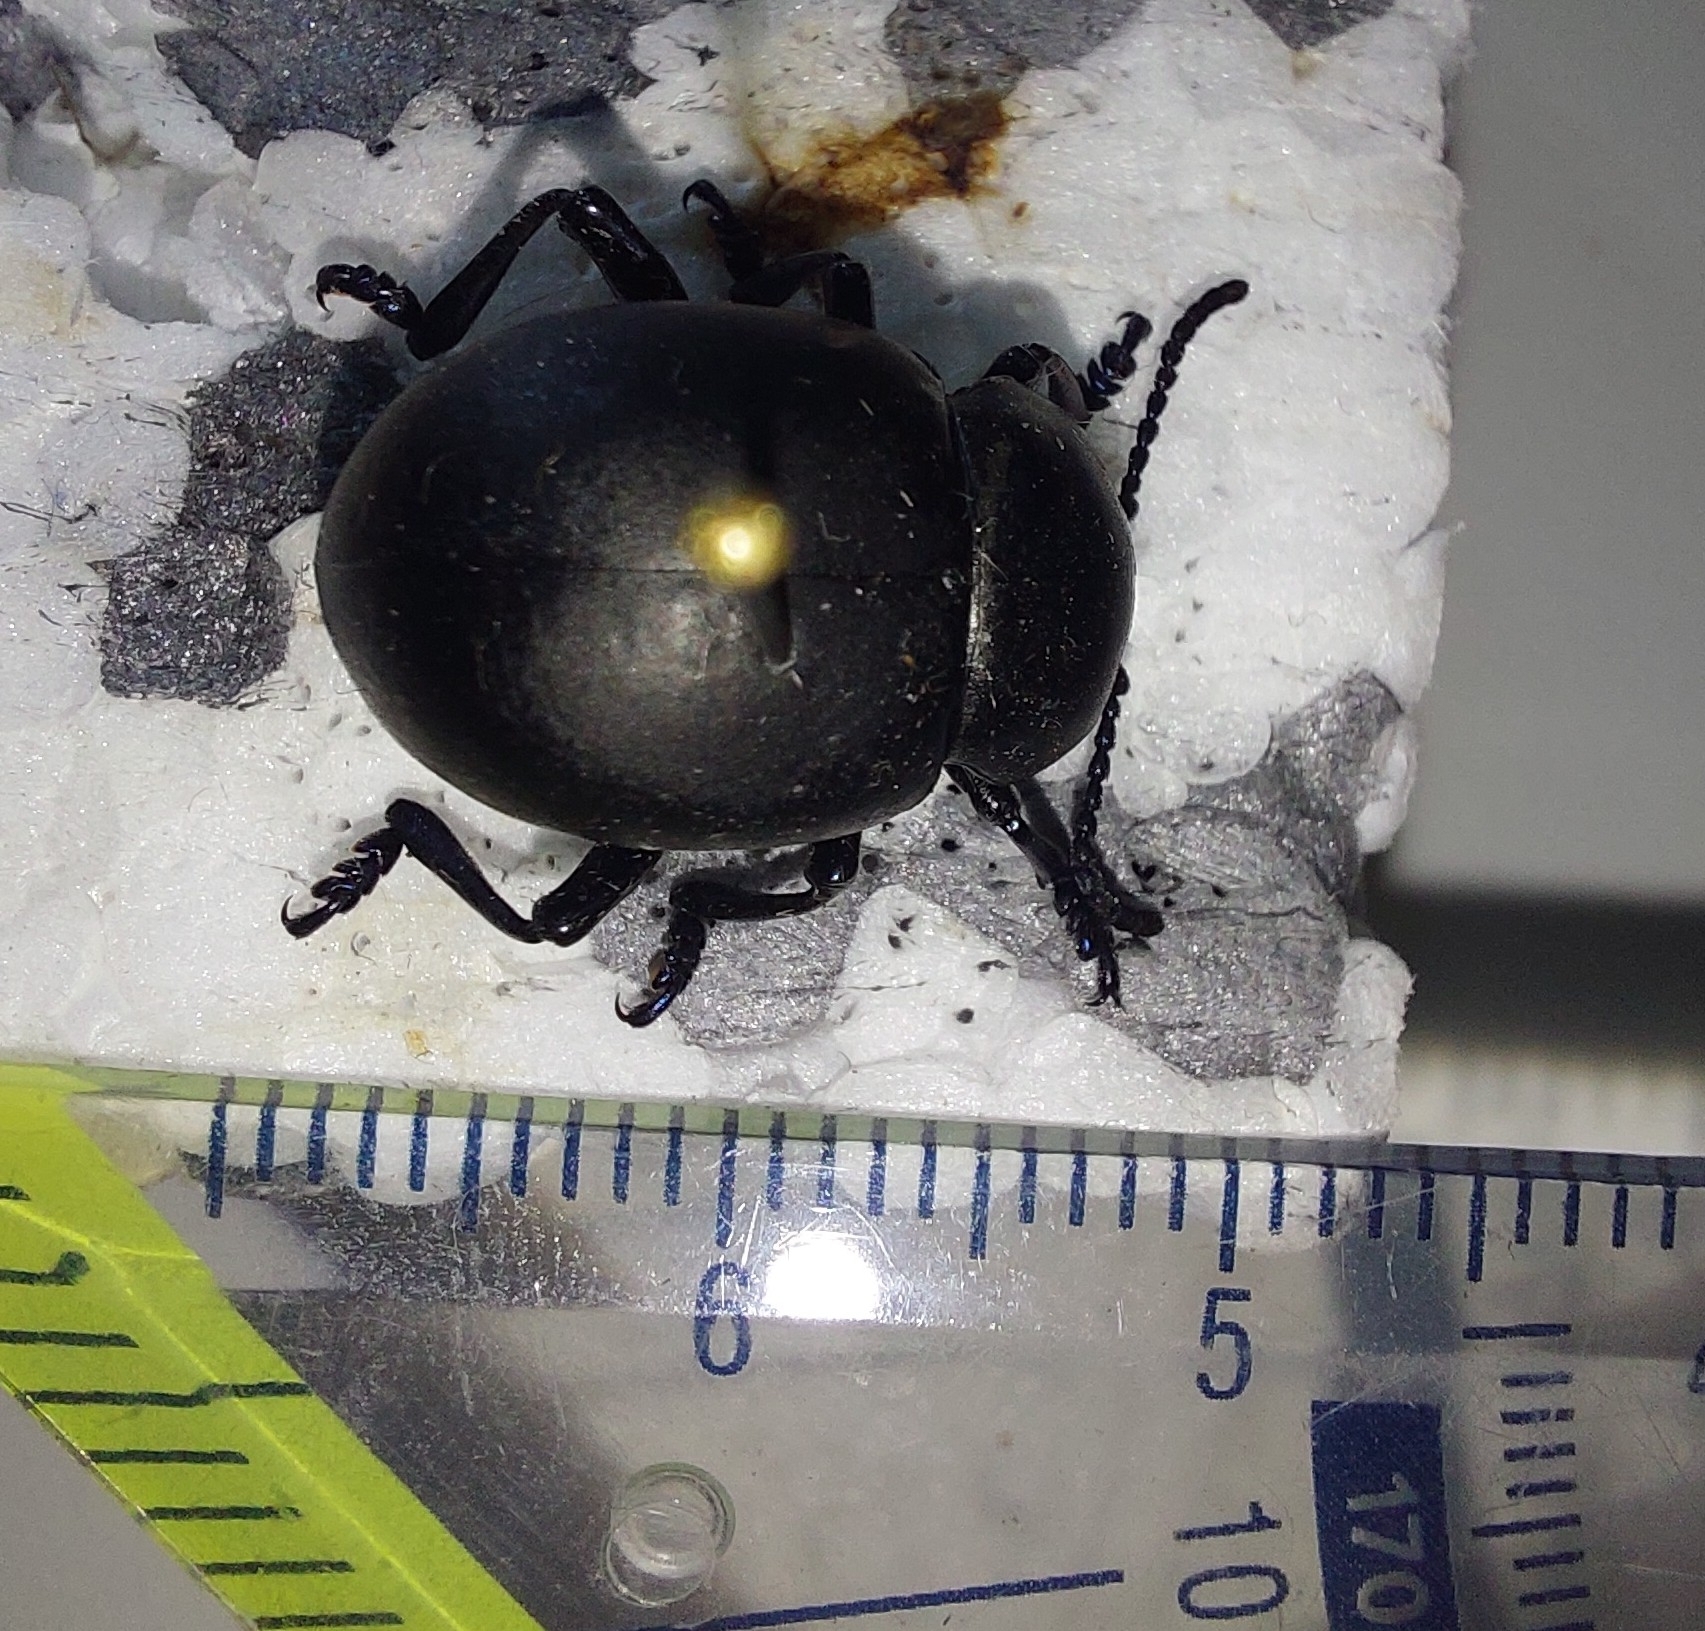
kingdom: Animalia
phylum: Arthropoda
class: Insecta
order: Coleoptera
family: Chrysomelidae
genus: Timarcha
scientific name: Timarcha tenebricosa
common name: Bloody-nosed beetle
